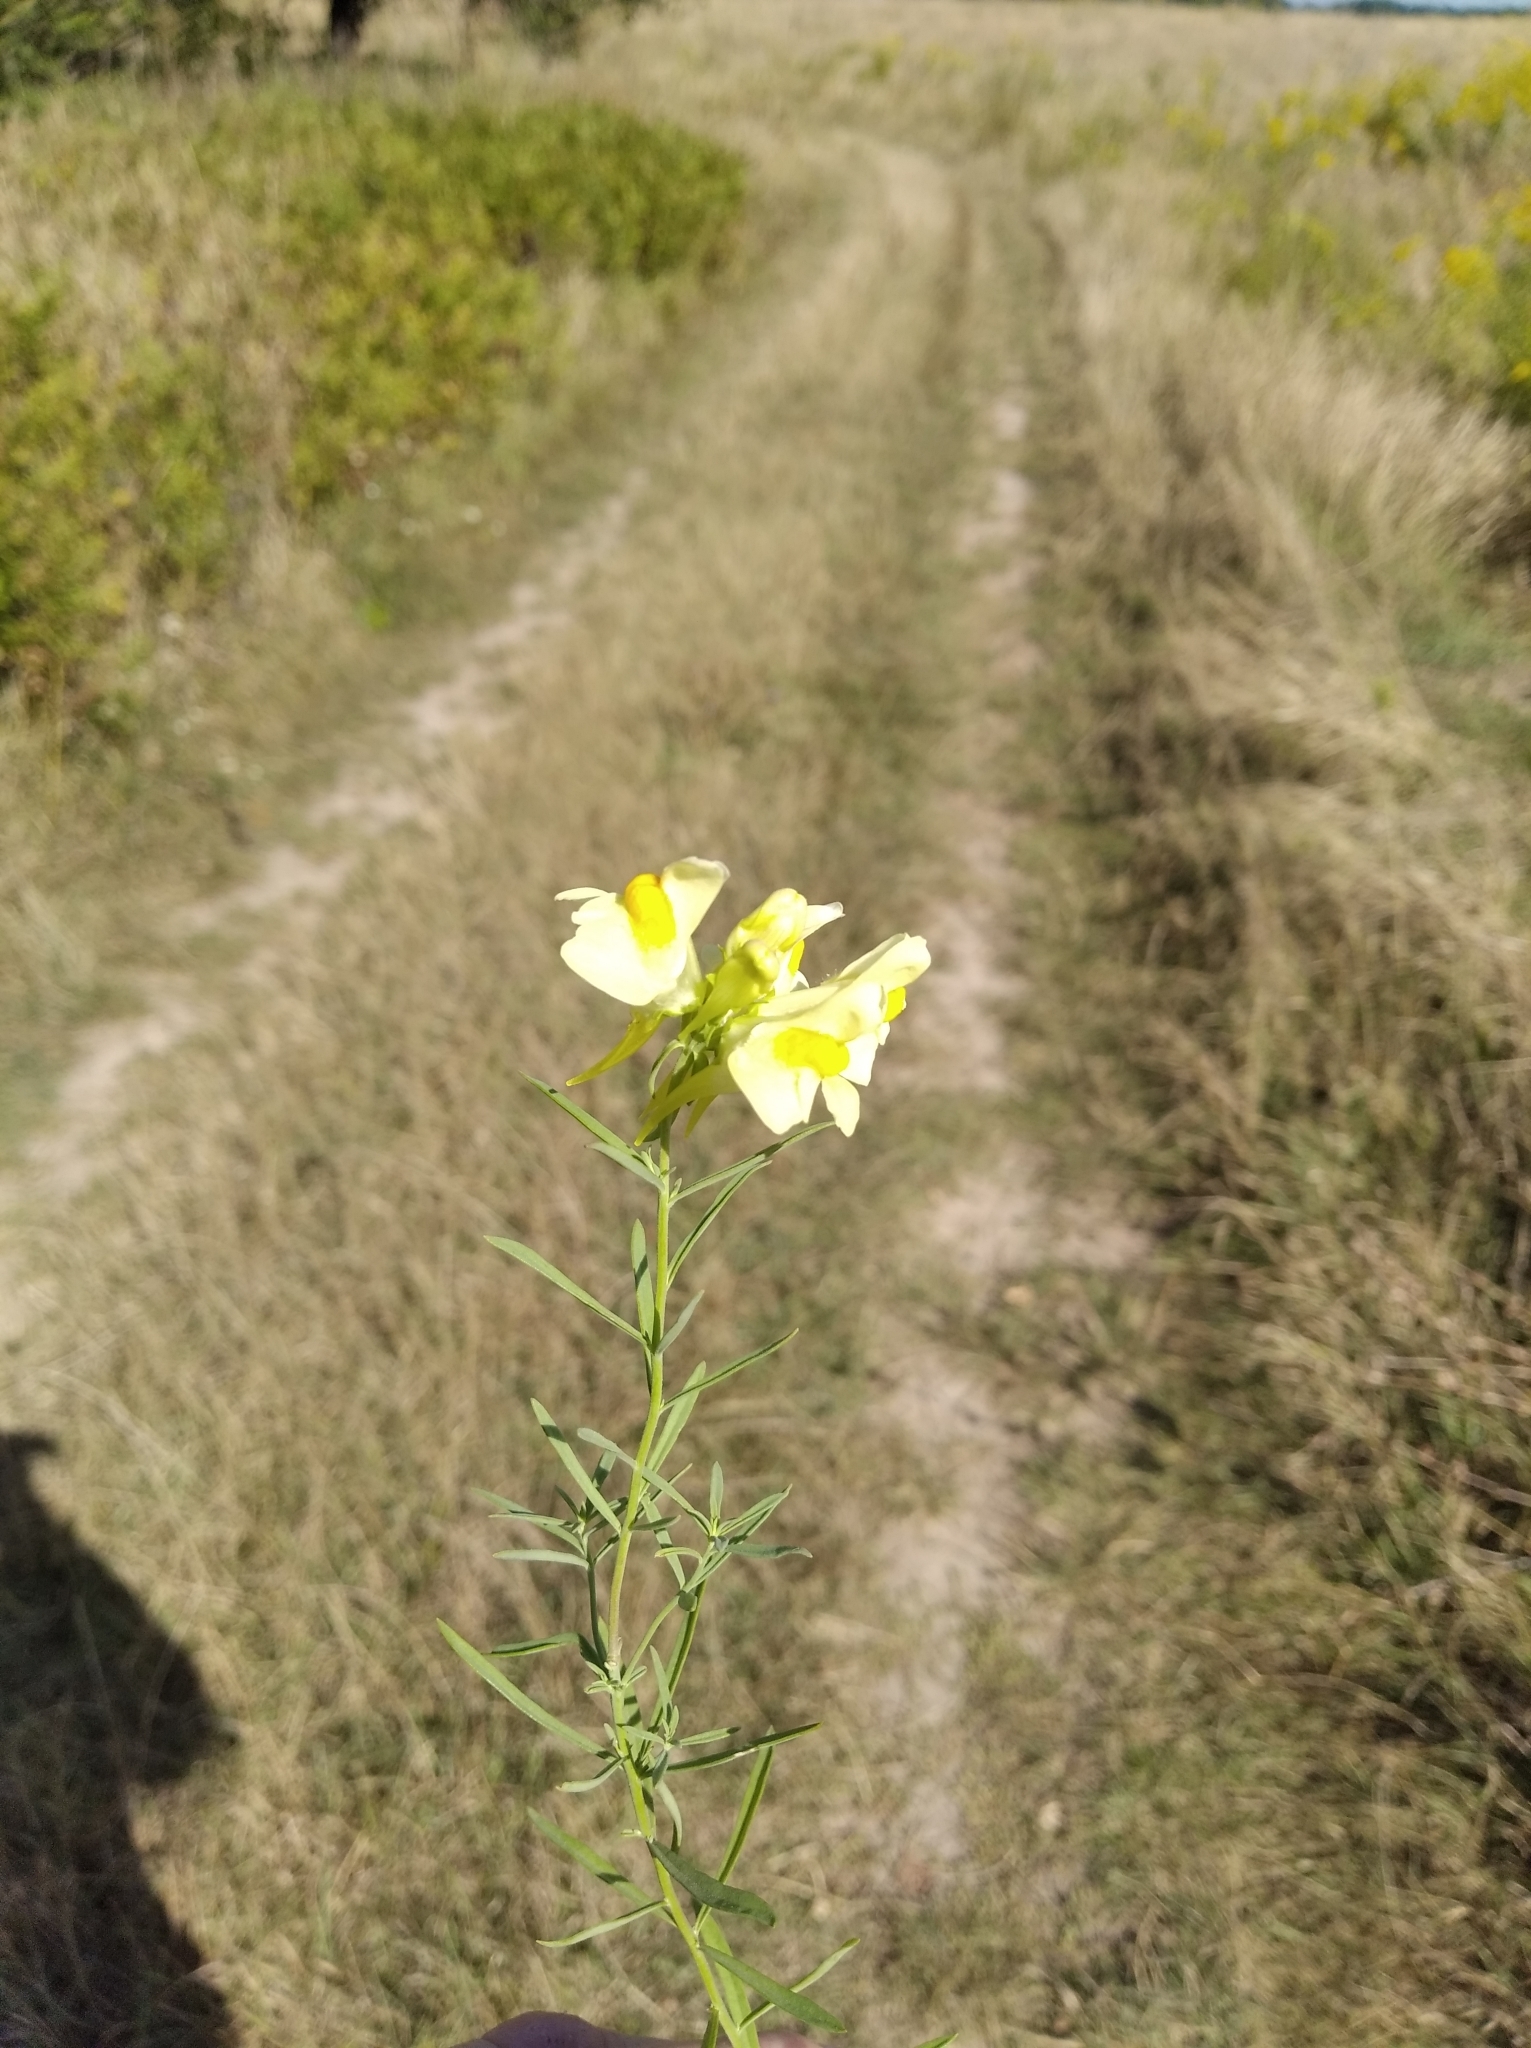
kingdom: Plantae
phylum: Tracheophyta
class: Magnoliopsida
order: Lamiales
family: Plantaginaceae
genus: Linaria
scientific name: Linaria vulgaris
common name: Butter and eggs
